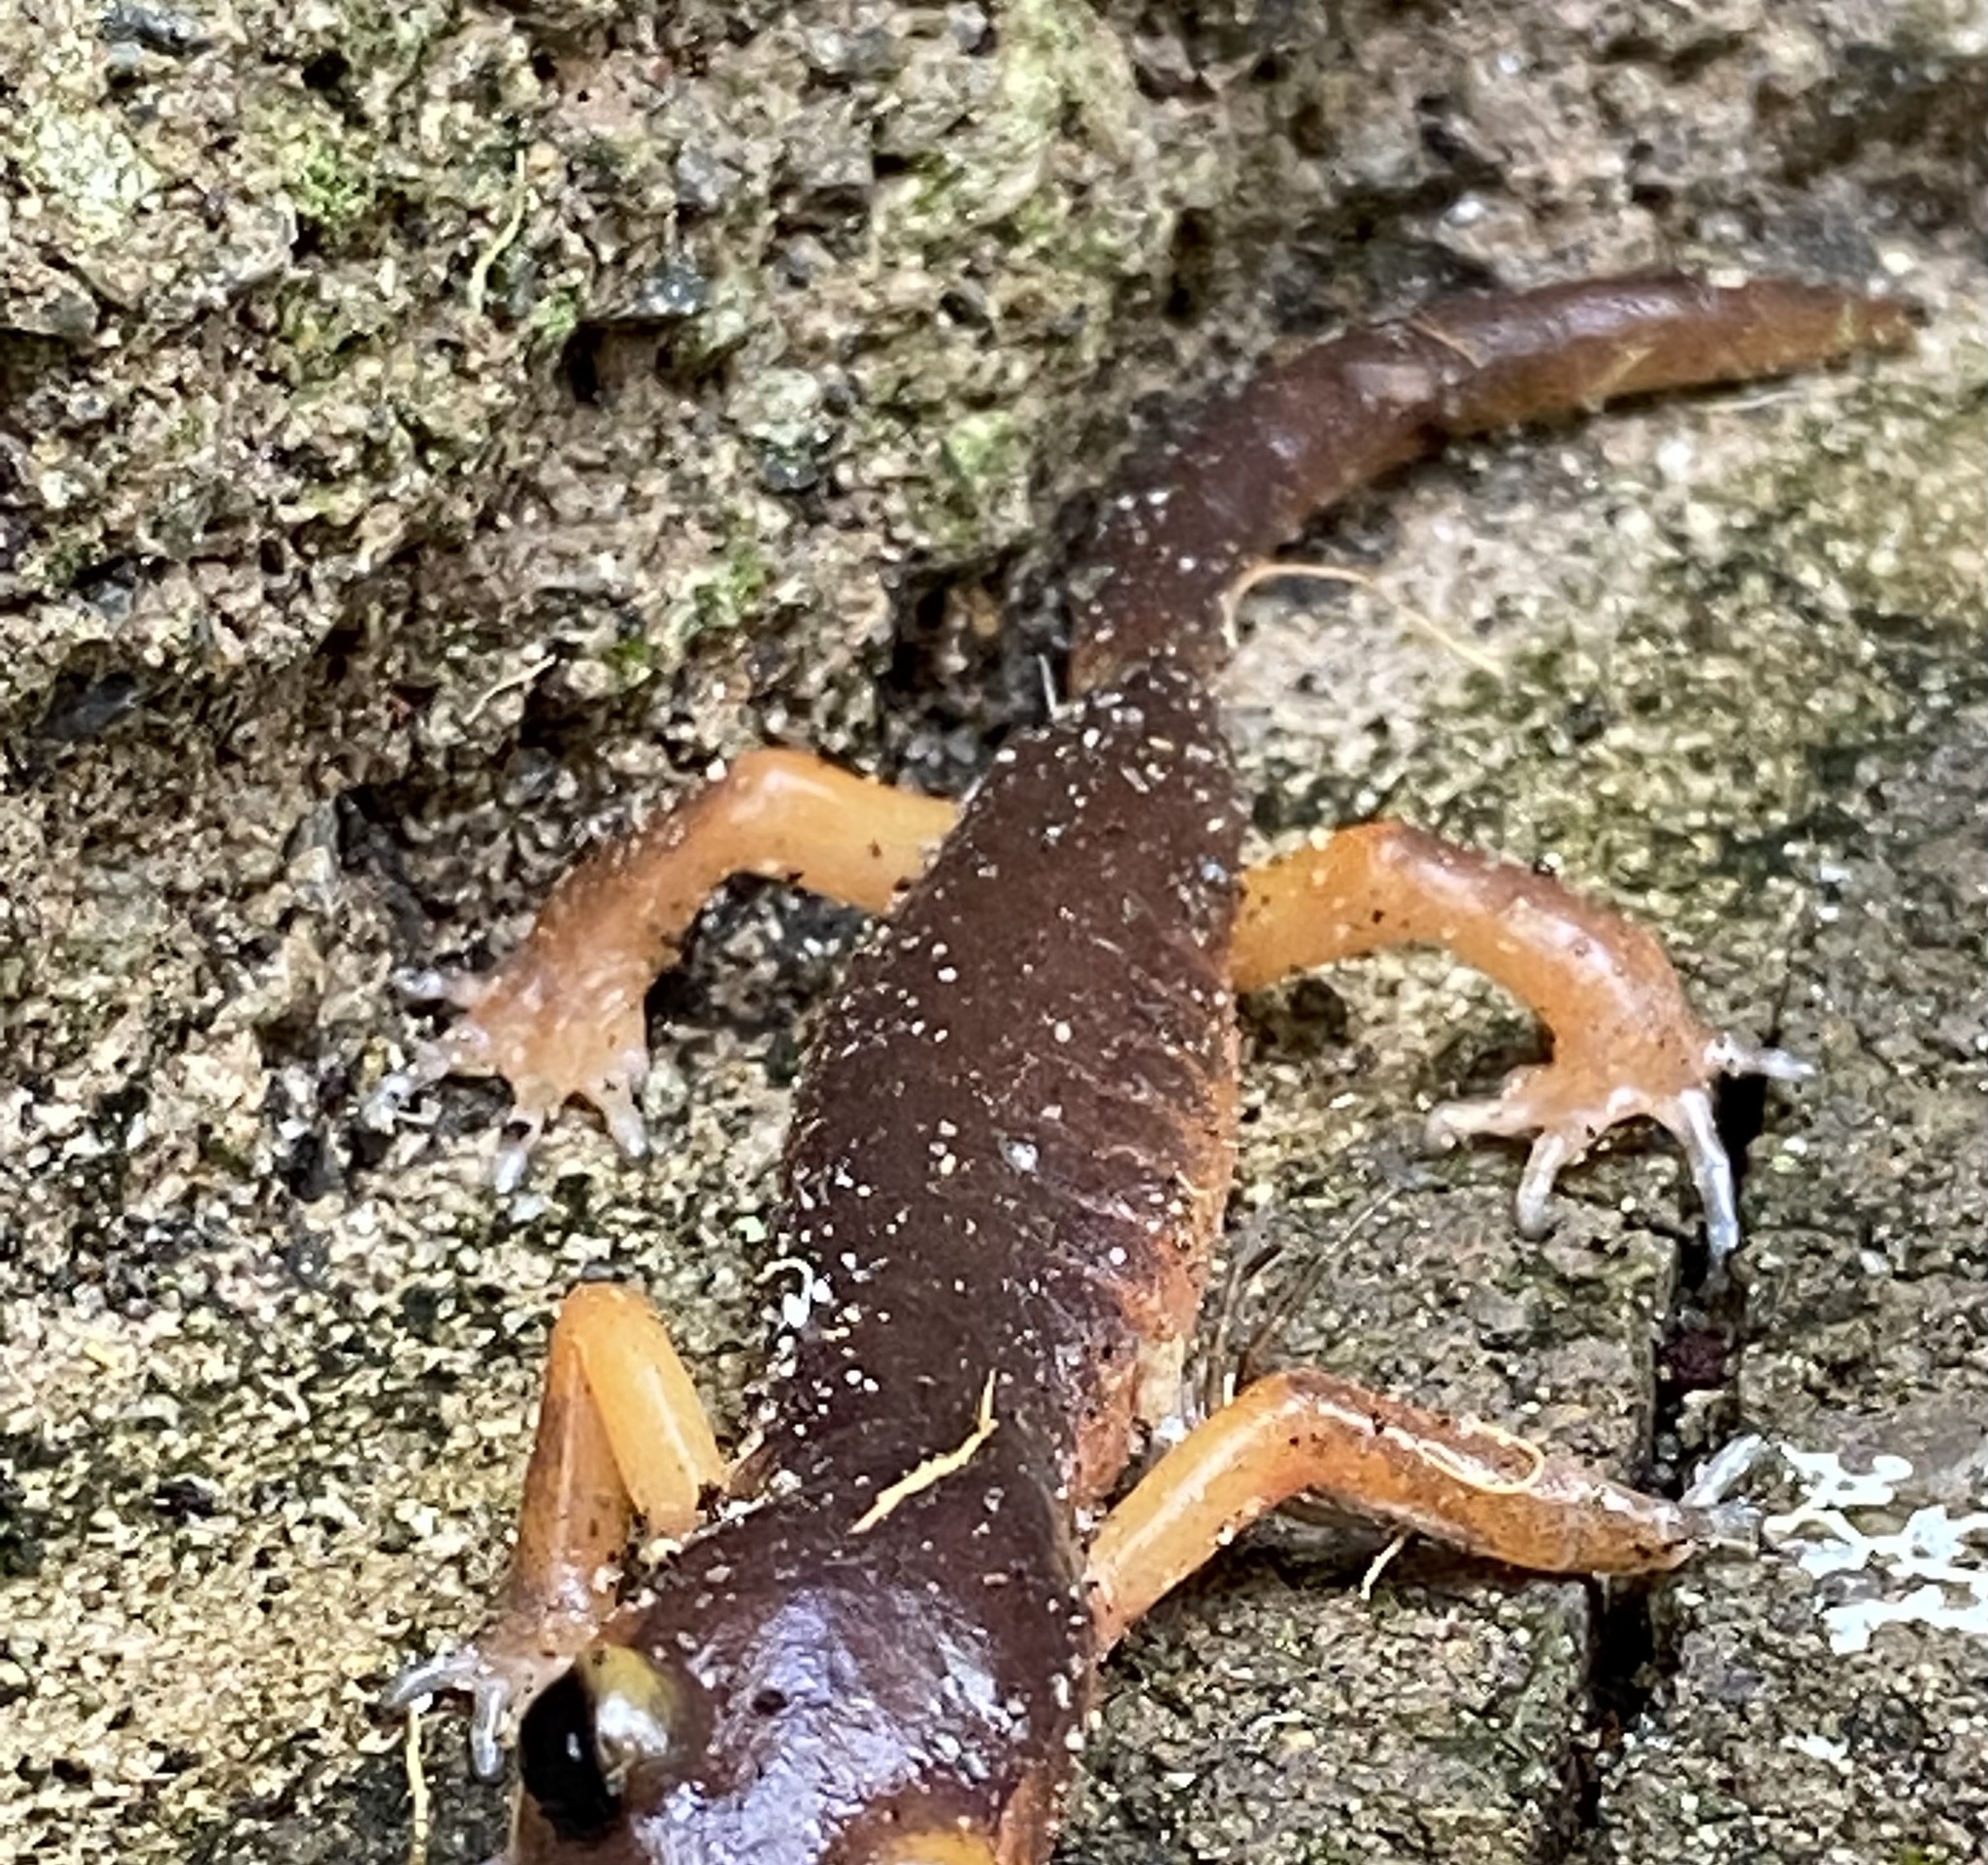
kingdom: Animalia
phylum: Chordata
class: Amphibia
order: Caudata
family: Plethodontidae
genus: Ensatina
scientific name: Ensatina eschscholtzii
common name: Ensatina
